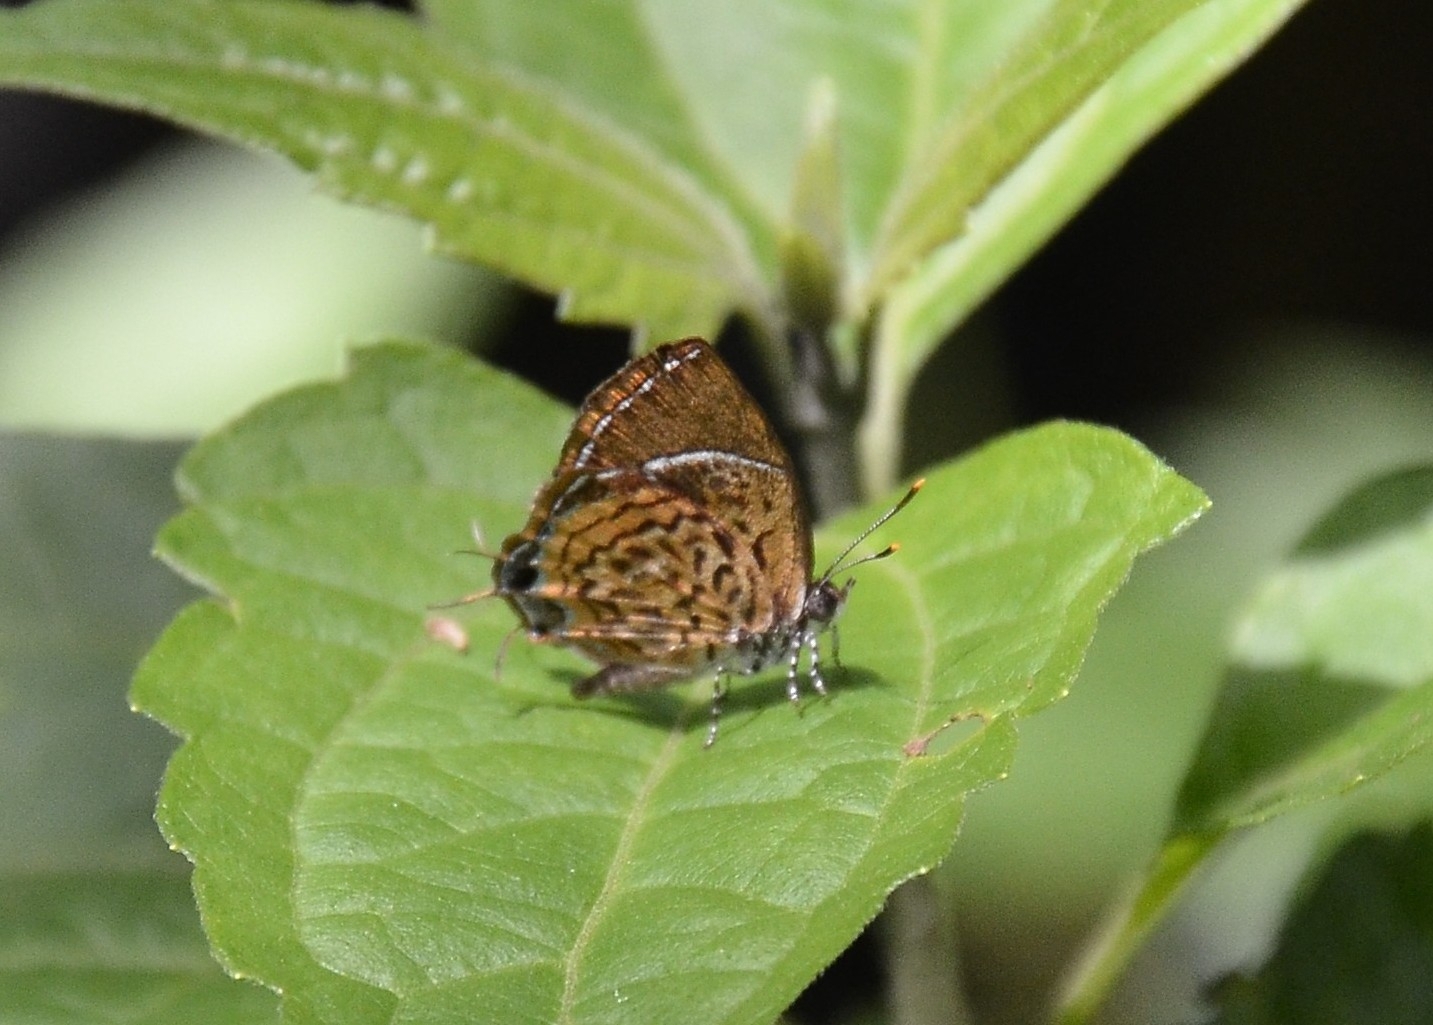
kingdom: Animalia
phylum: Arthropoda
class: Insecta
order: Lepidoptera
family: Lycaenidae
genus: Rathinda
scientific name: Rathinda amor
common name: Monkey puzzle
